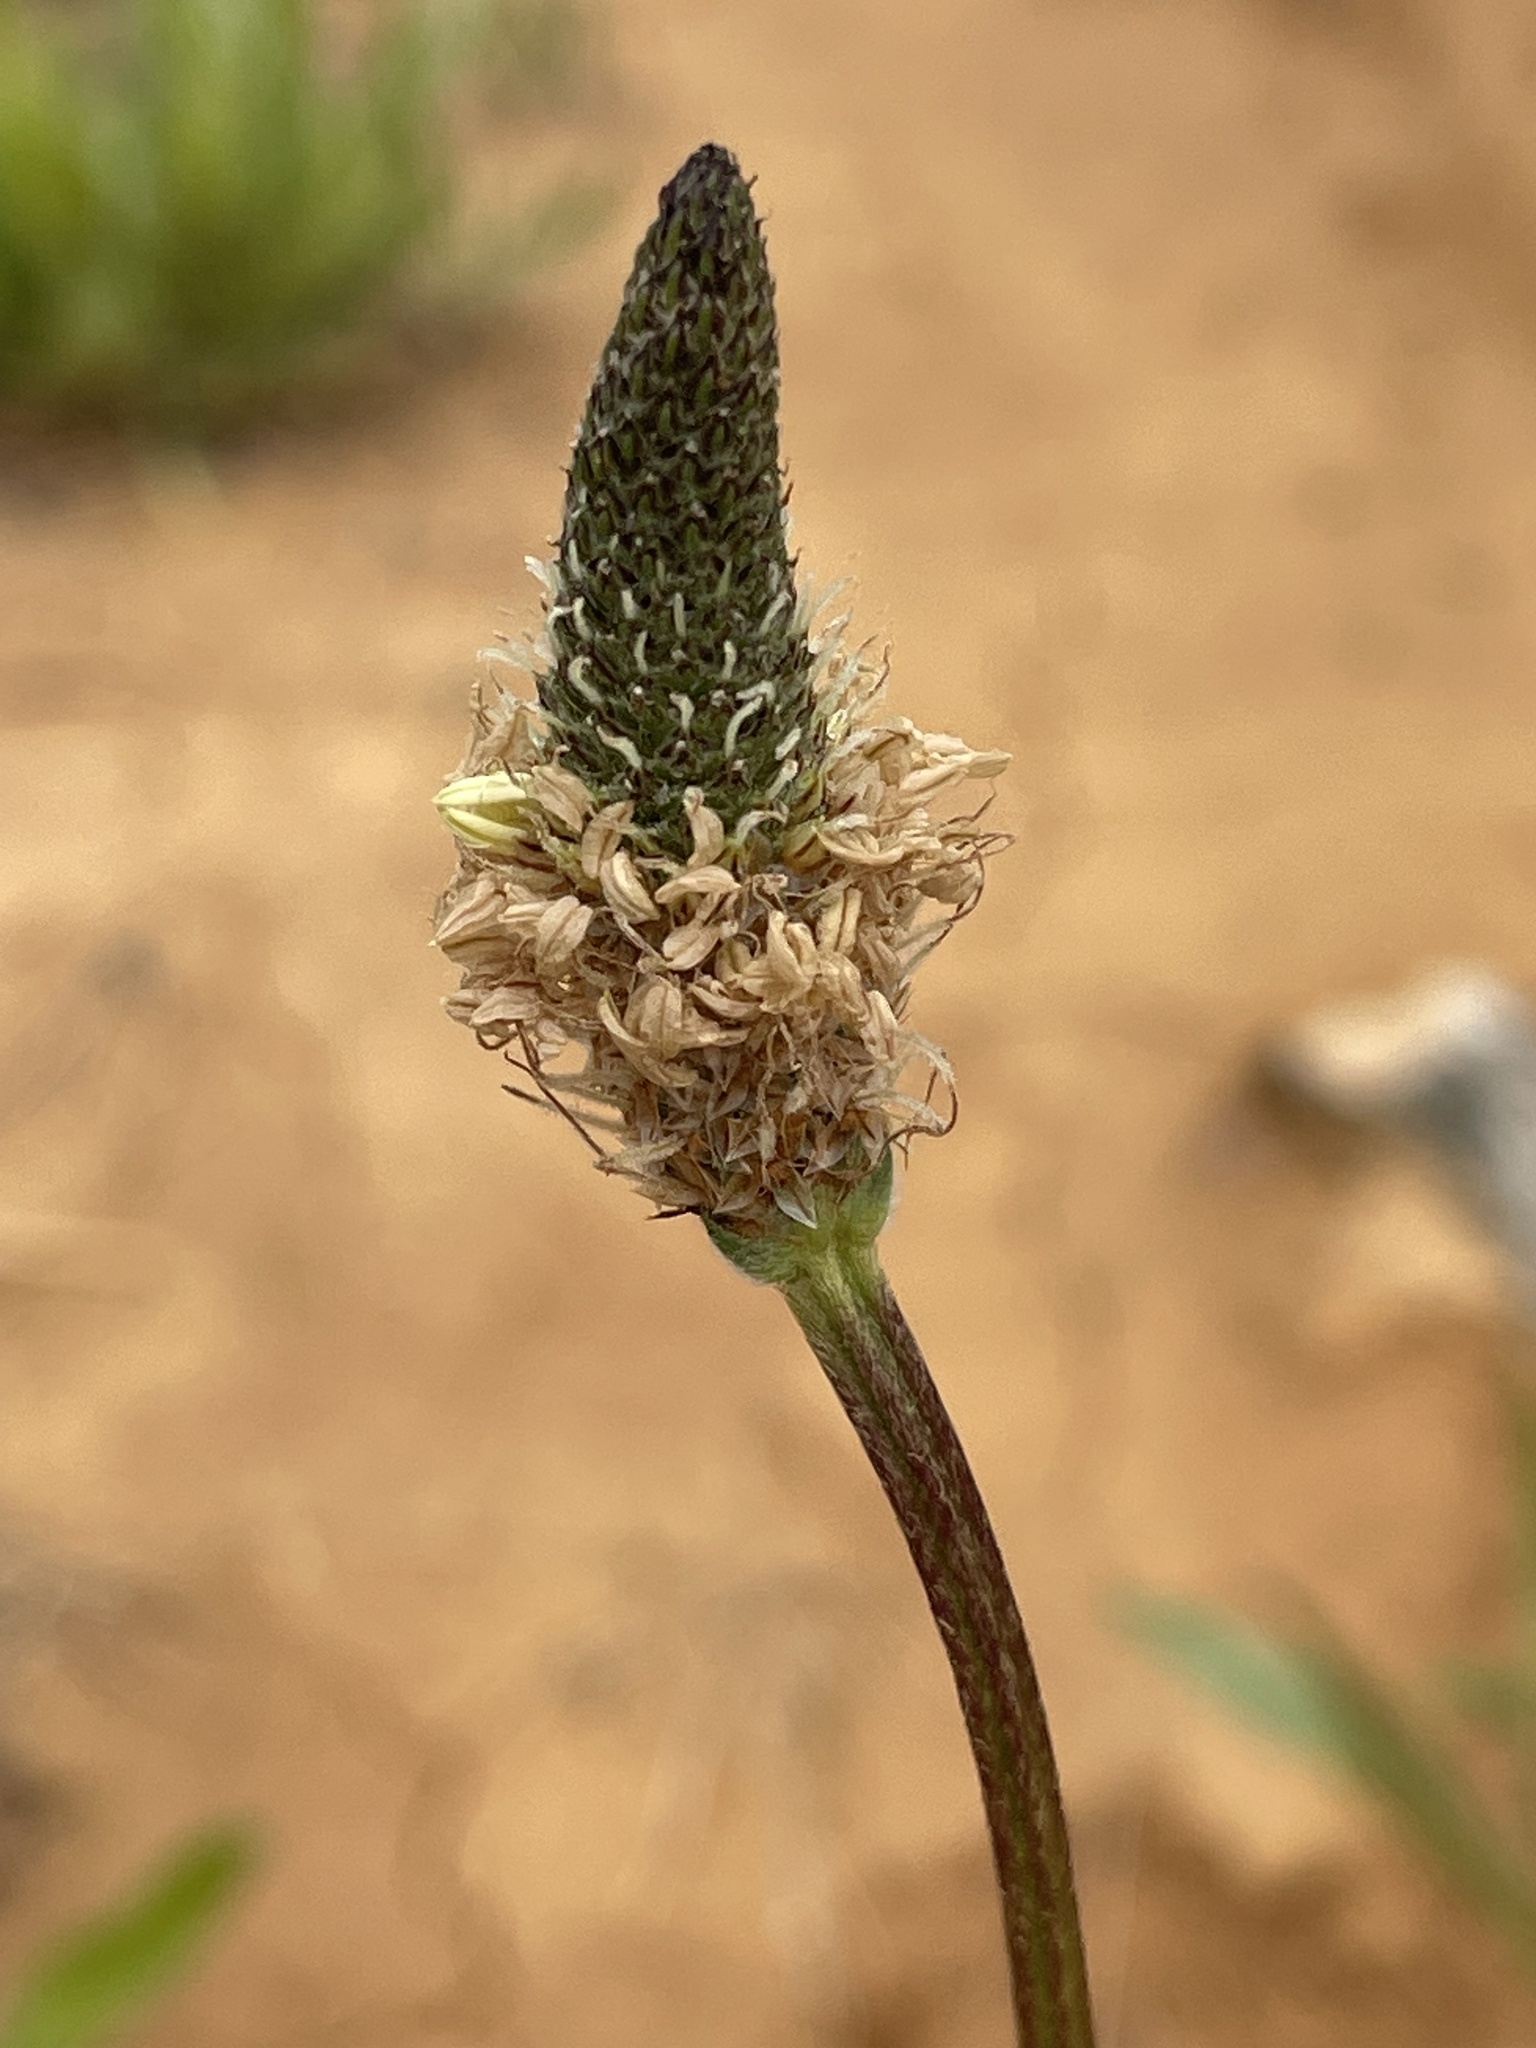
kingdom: Plantae
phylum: Tracheophyta
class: Magnoliopsida
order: Lamiales
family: Plantaginaceae
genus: Plantago
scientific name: Plantago lanceolata
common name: Ribwort plantain
